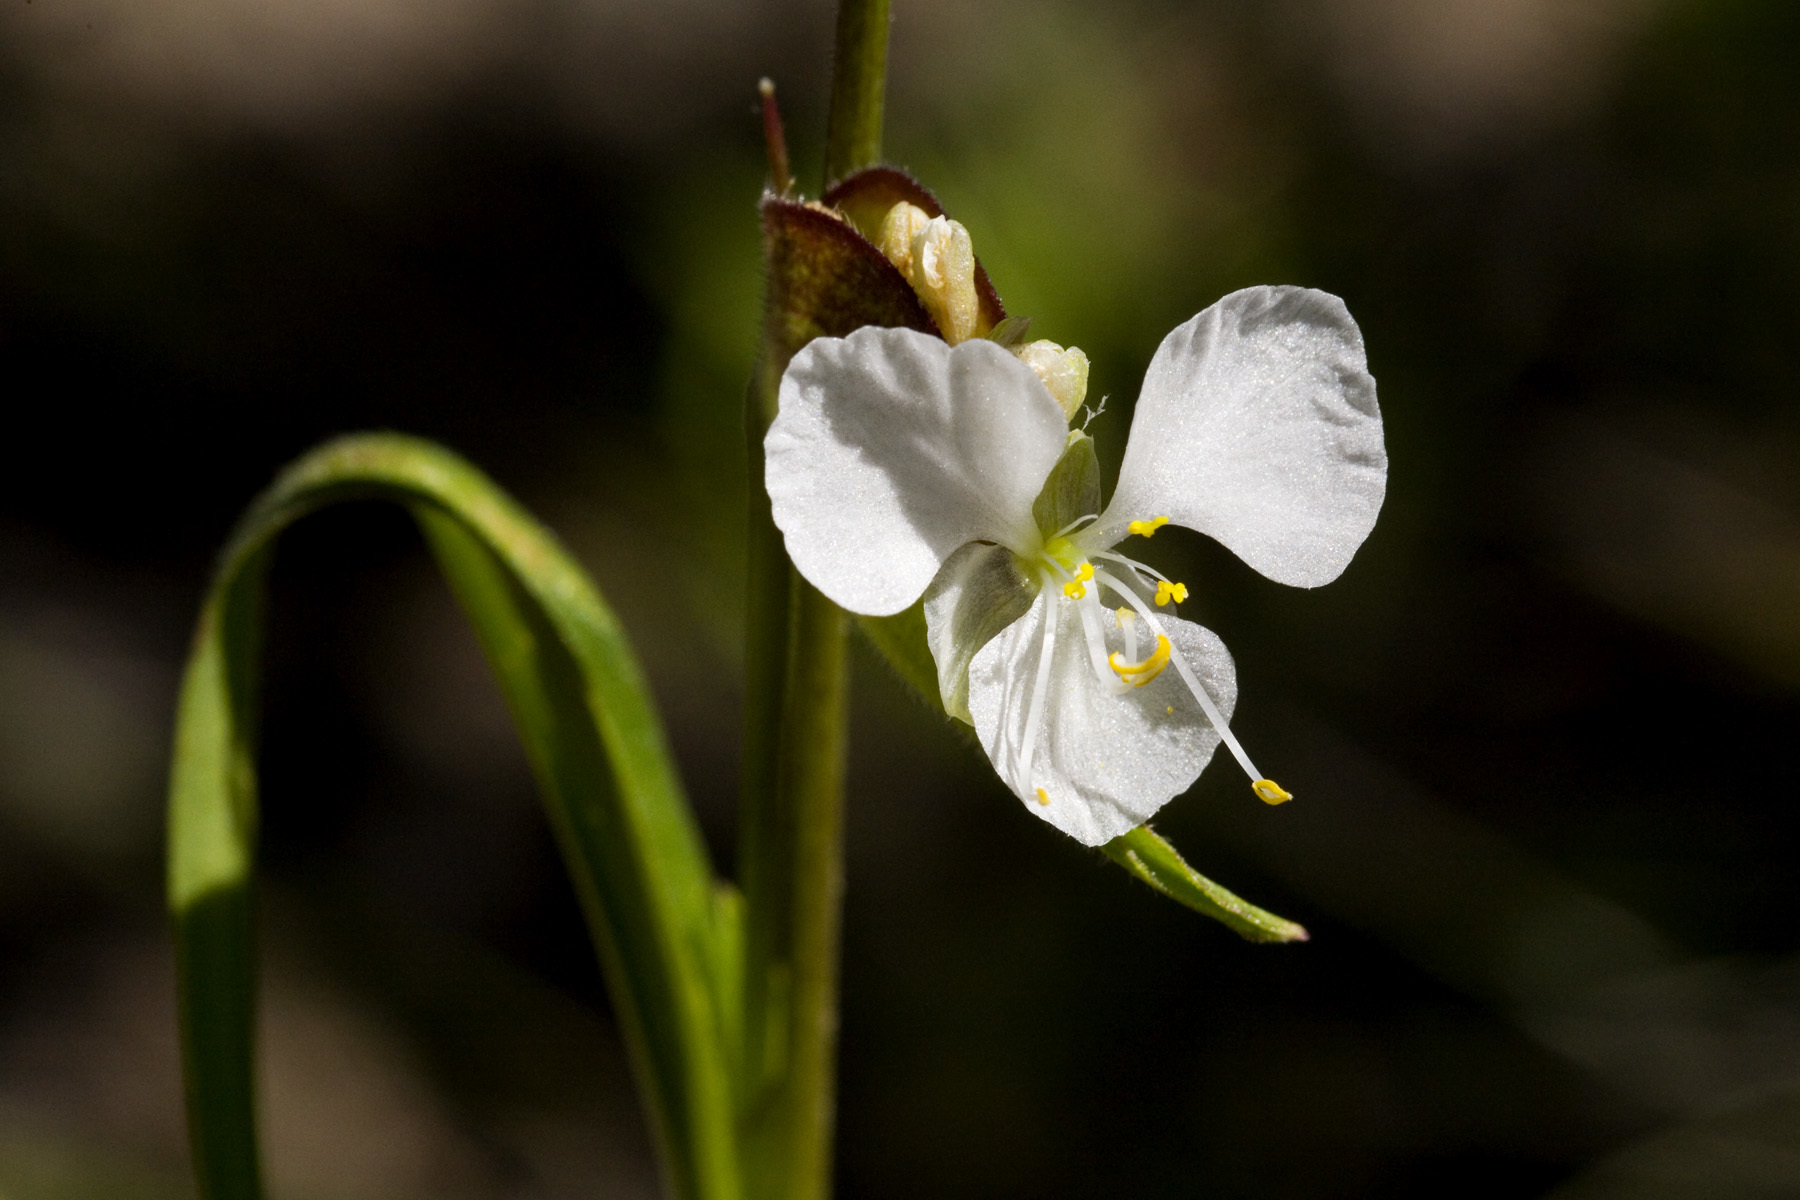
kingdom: Plantae
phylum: Tracheophyta
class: Liliopsida
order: Commelinales
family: Commelinaceae
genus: Commelina
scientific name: Commelina dianthifolia
